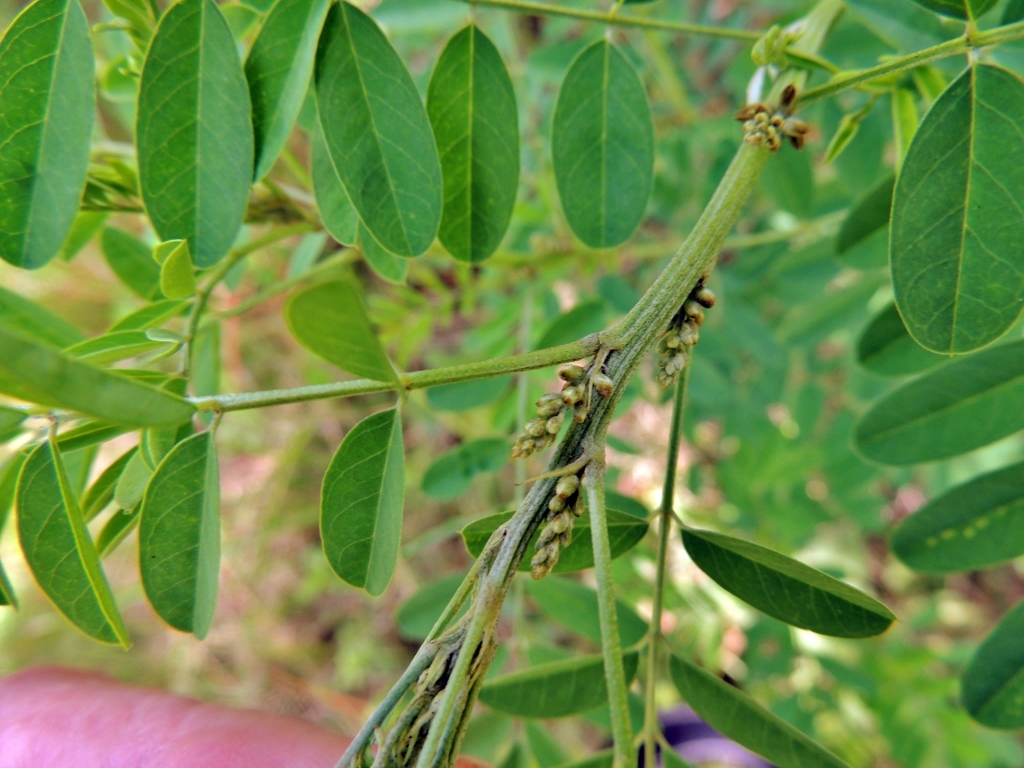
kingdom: Plantae
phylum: Tracheophyta
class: Magnoliopsida
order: Fabales
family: Fabaceae
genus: Indigofera
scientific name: Indigofera arrecta
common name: Bengal indigo
